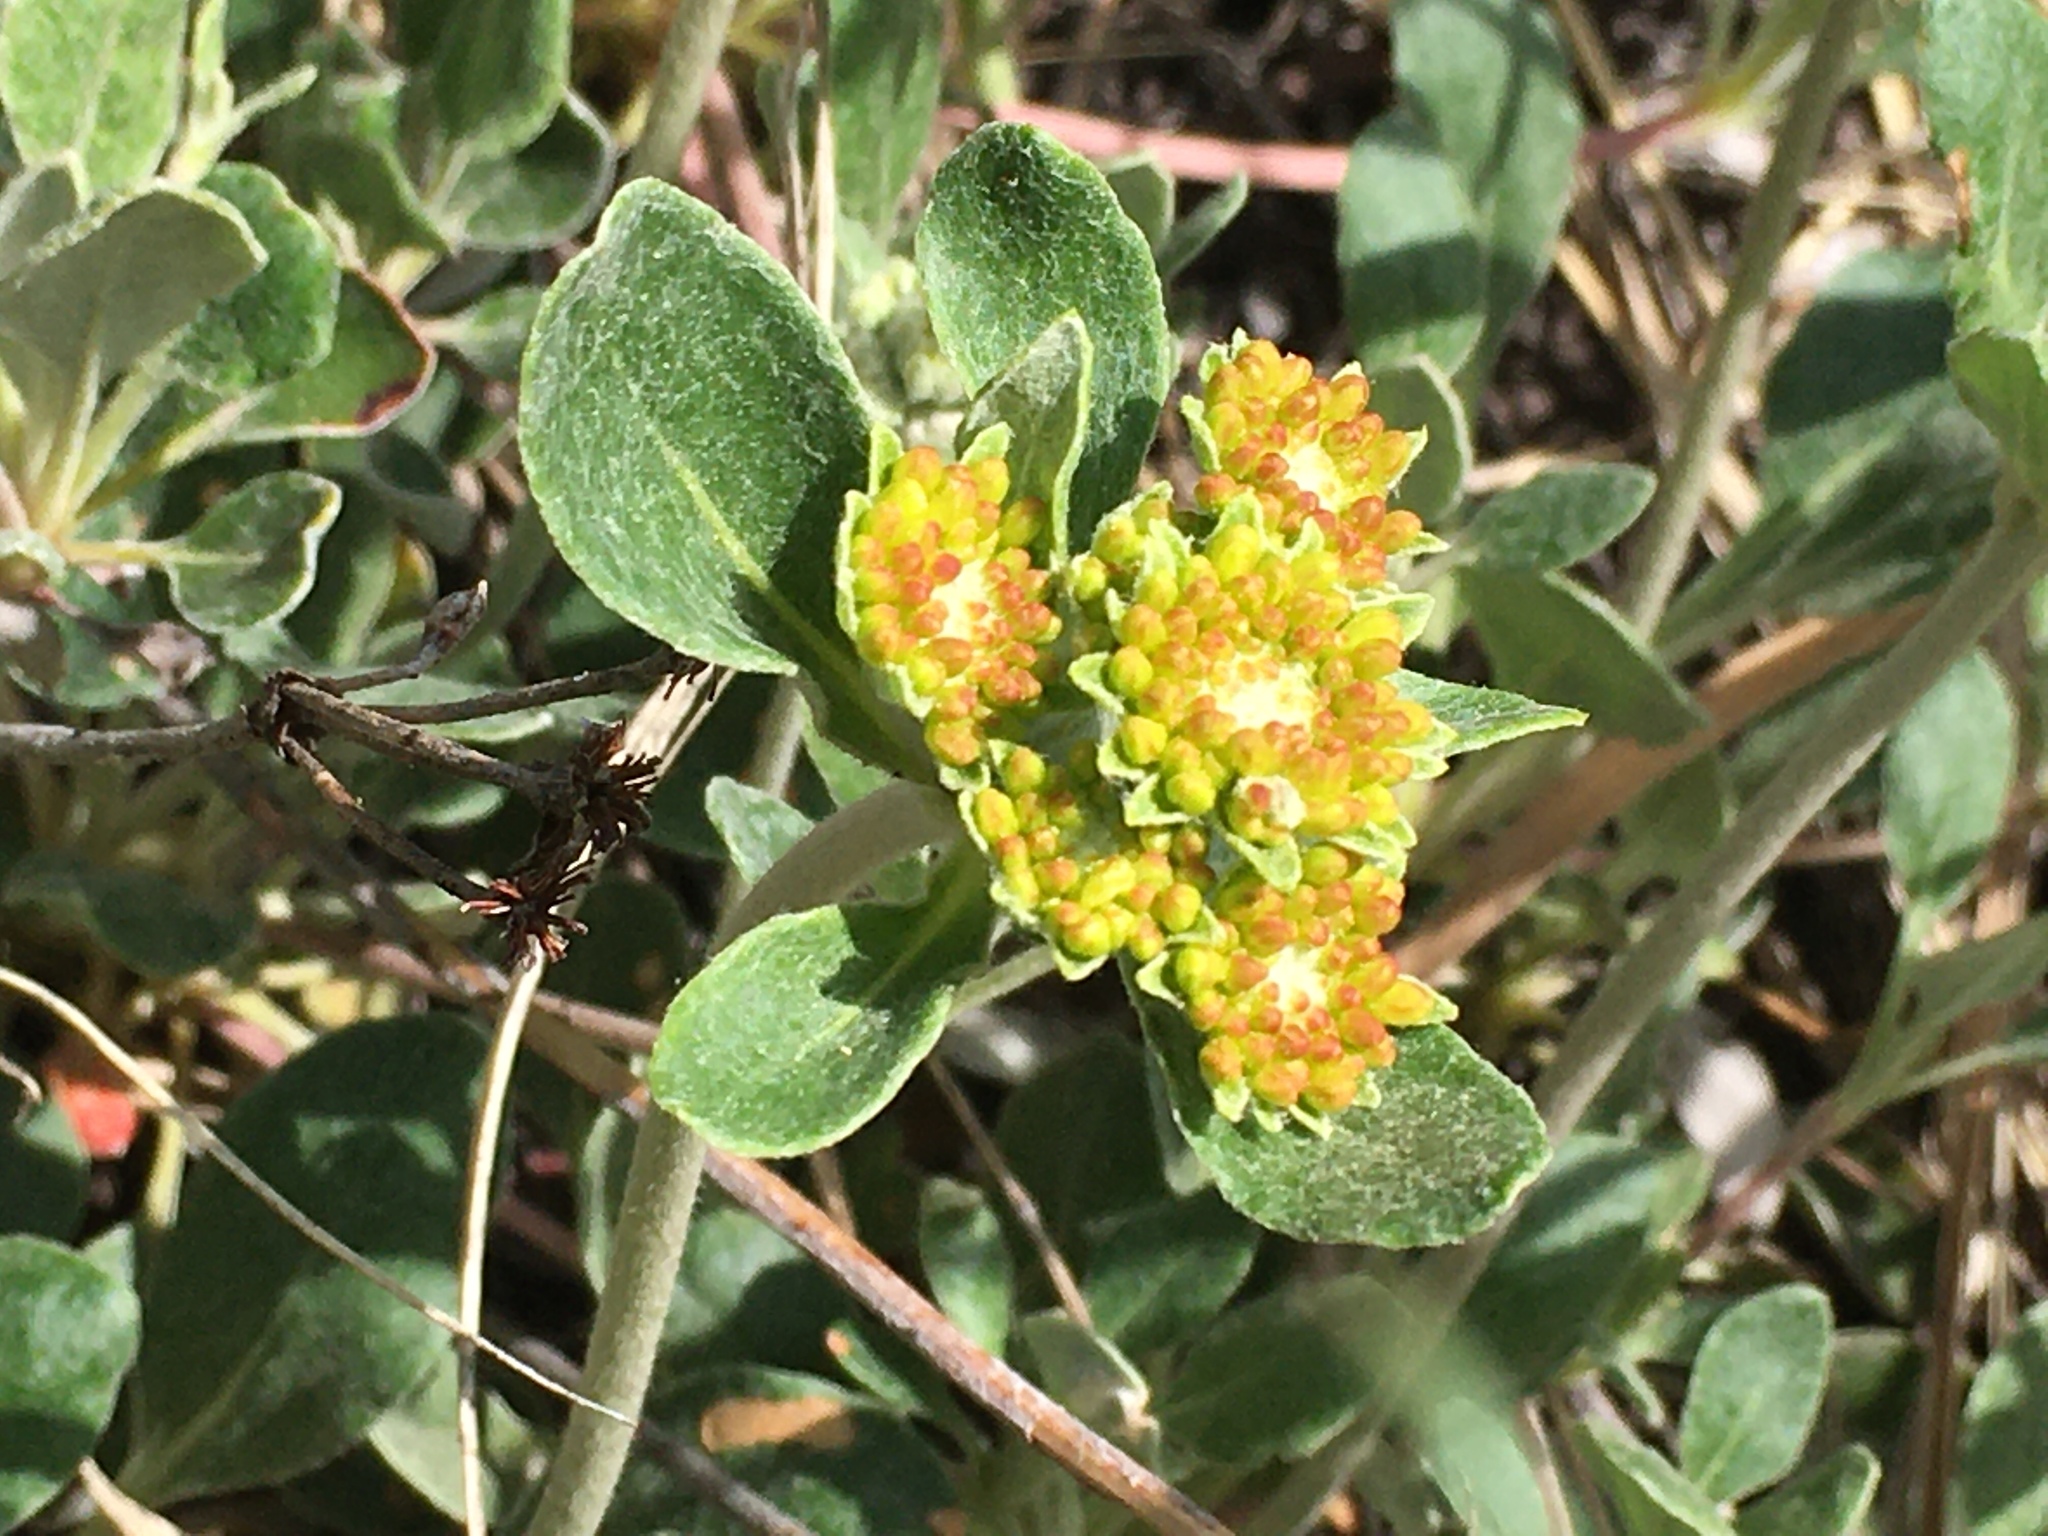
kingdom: Plantae
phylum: Tracheophyta
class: Magnoliopsida
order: Caryophyllales
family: Polygonaceae
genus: Eriogonum
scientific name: Eriogonum umbellatum
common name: Sulfur-buckwheat
